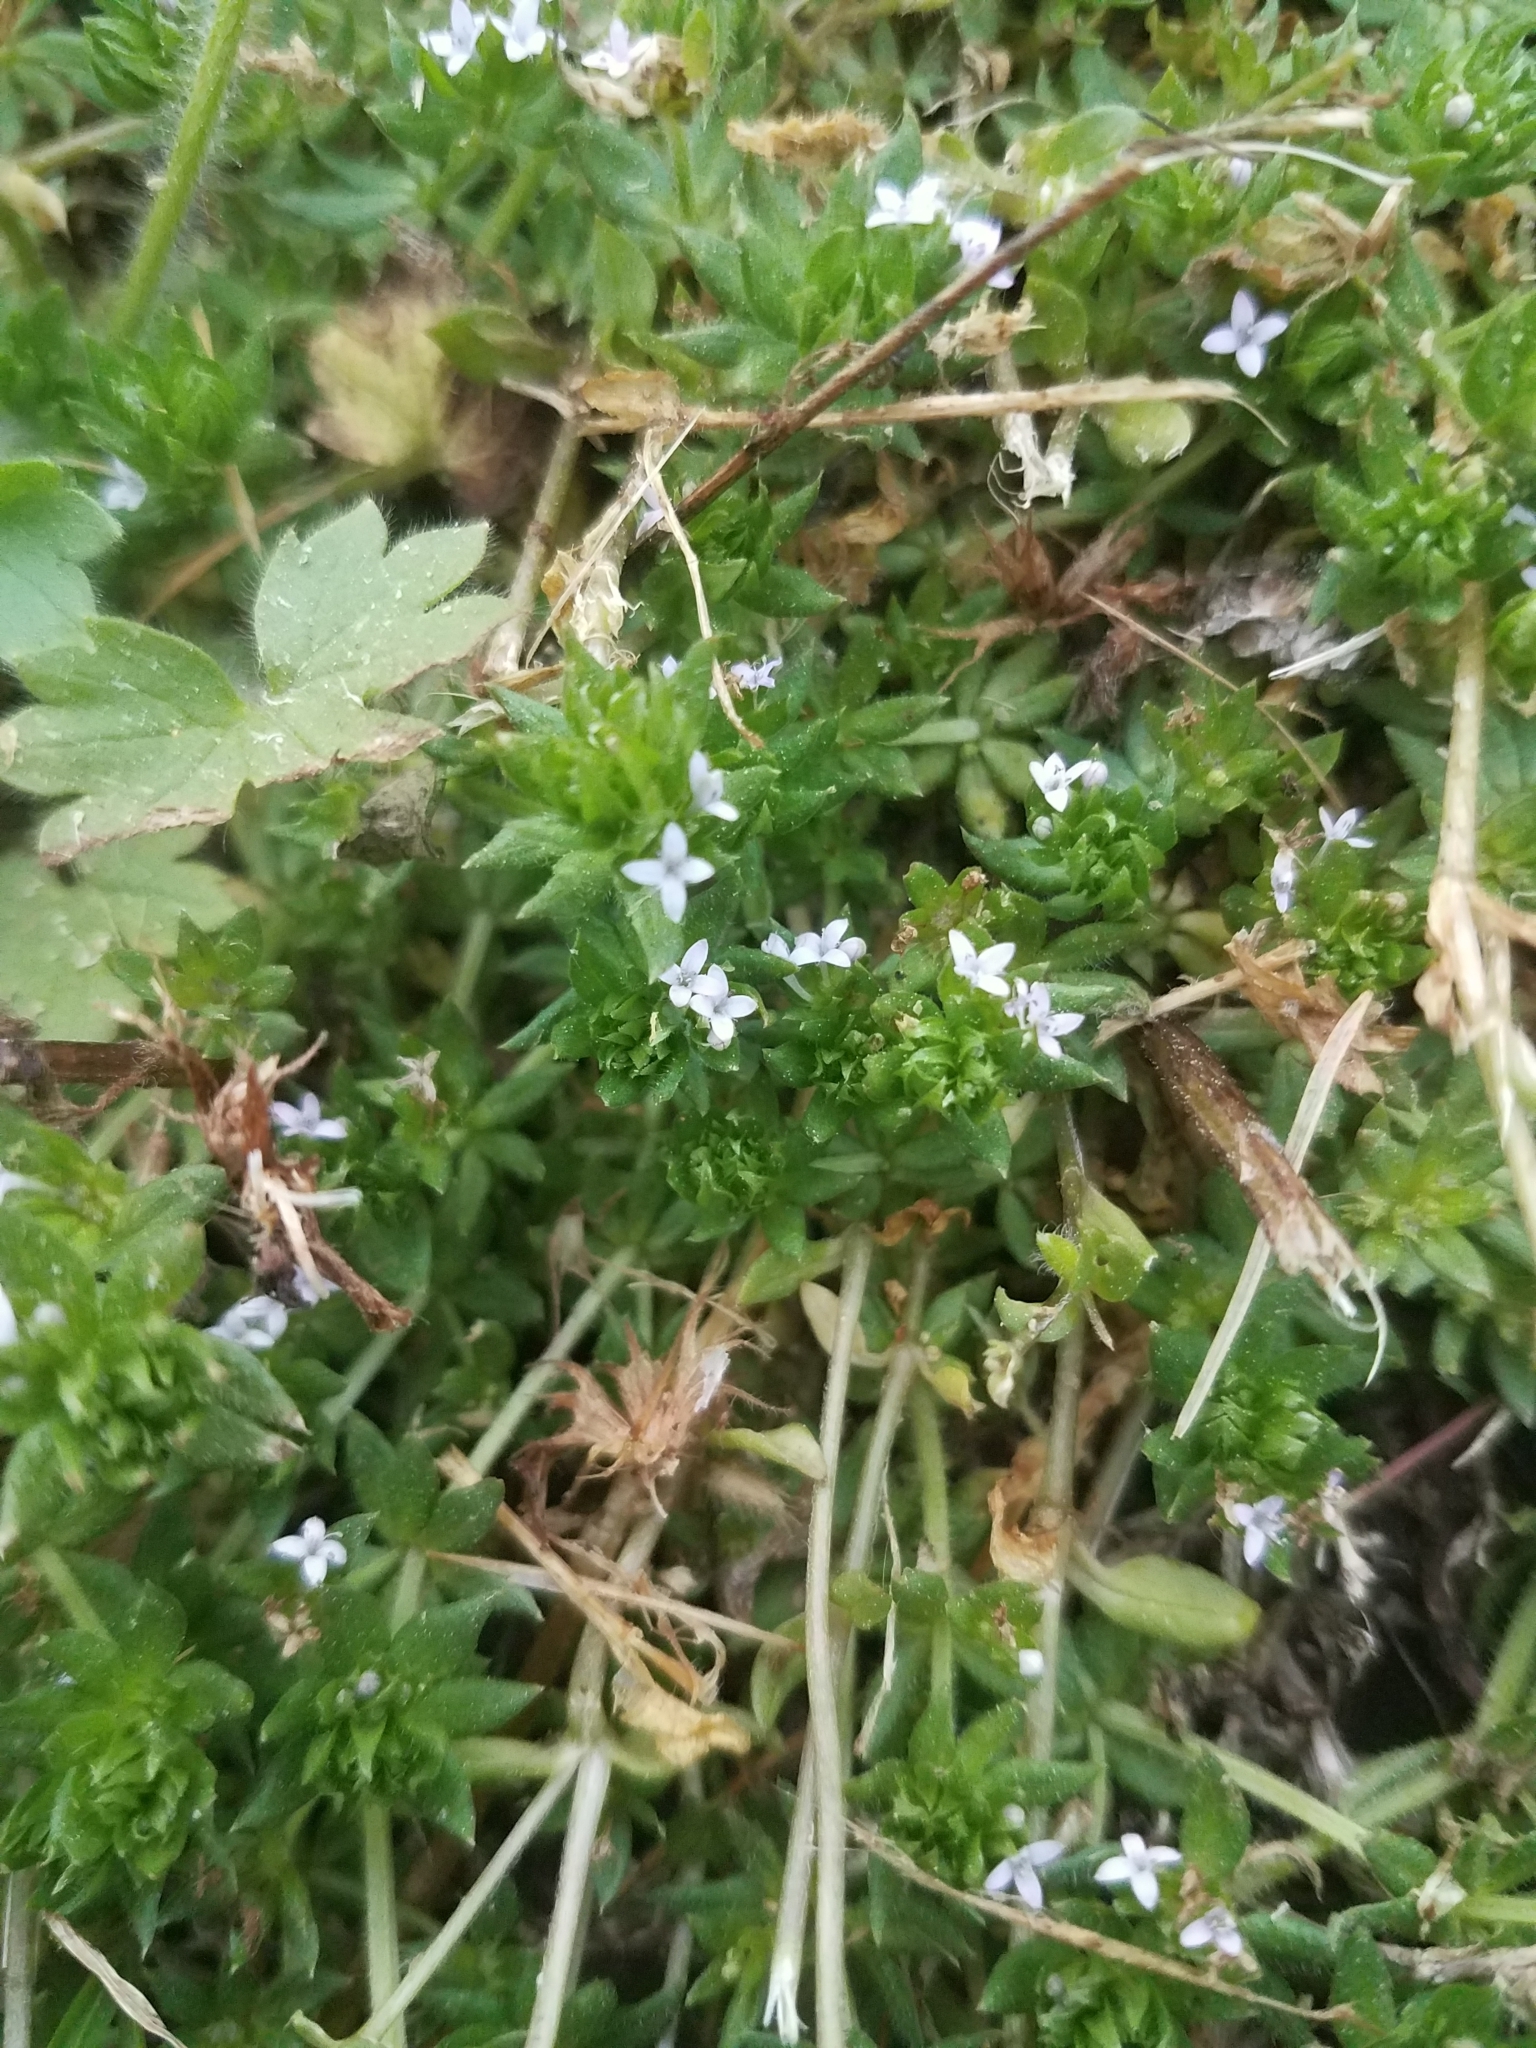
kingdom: Plantae
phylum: Tracheophyta
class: Magnoliopsida
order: Gentianales
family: Rubiaceae
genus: Sherardia
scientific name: Sherardia arvensis
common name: Field madder
